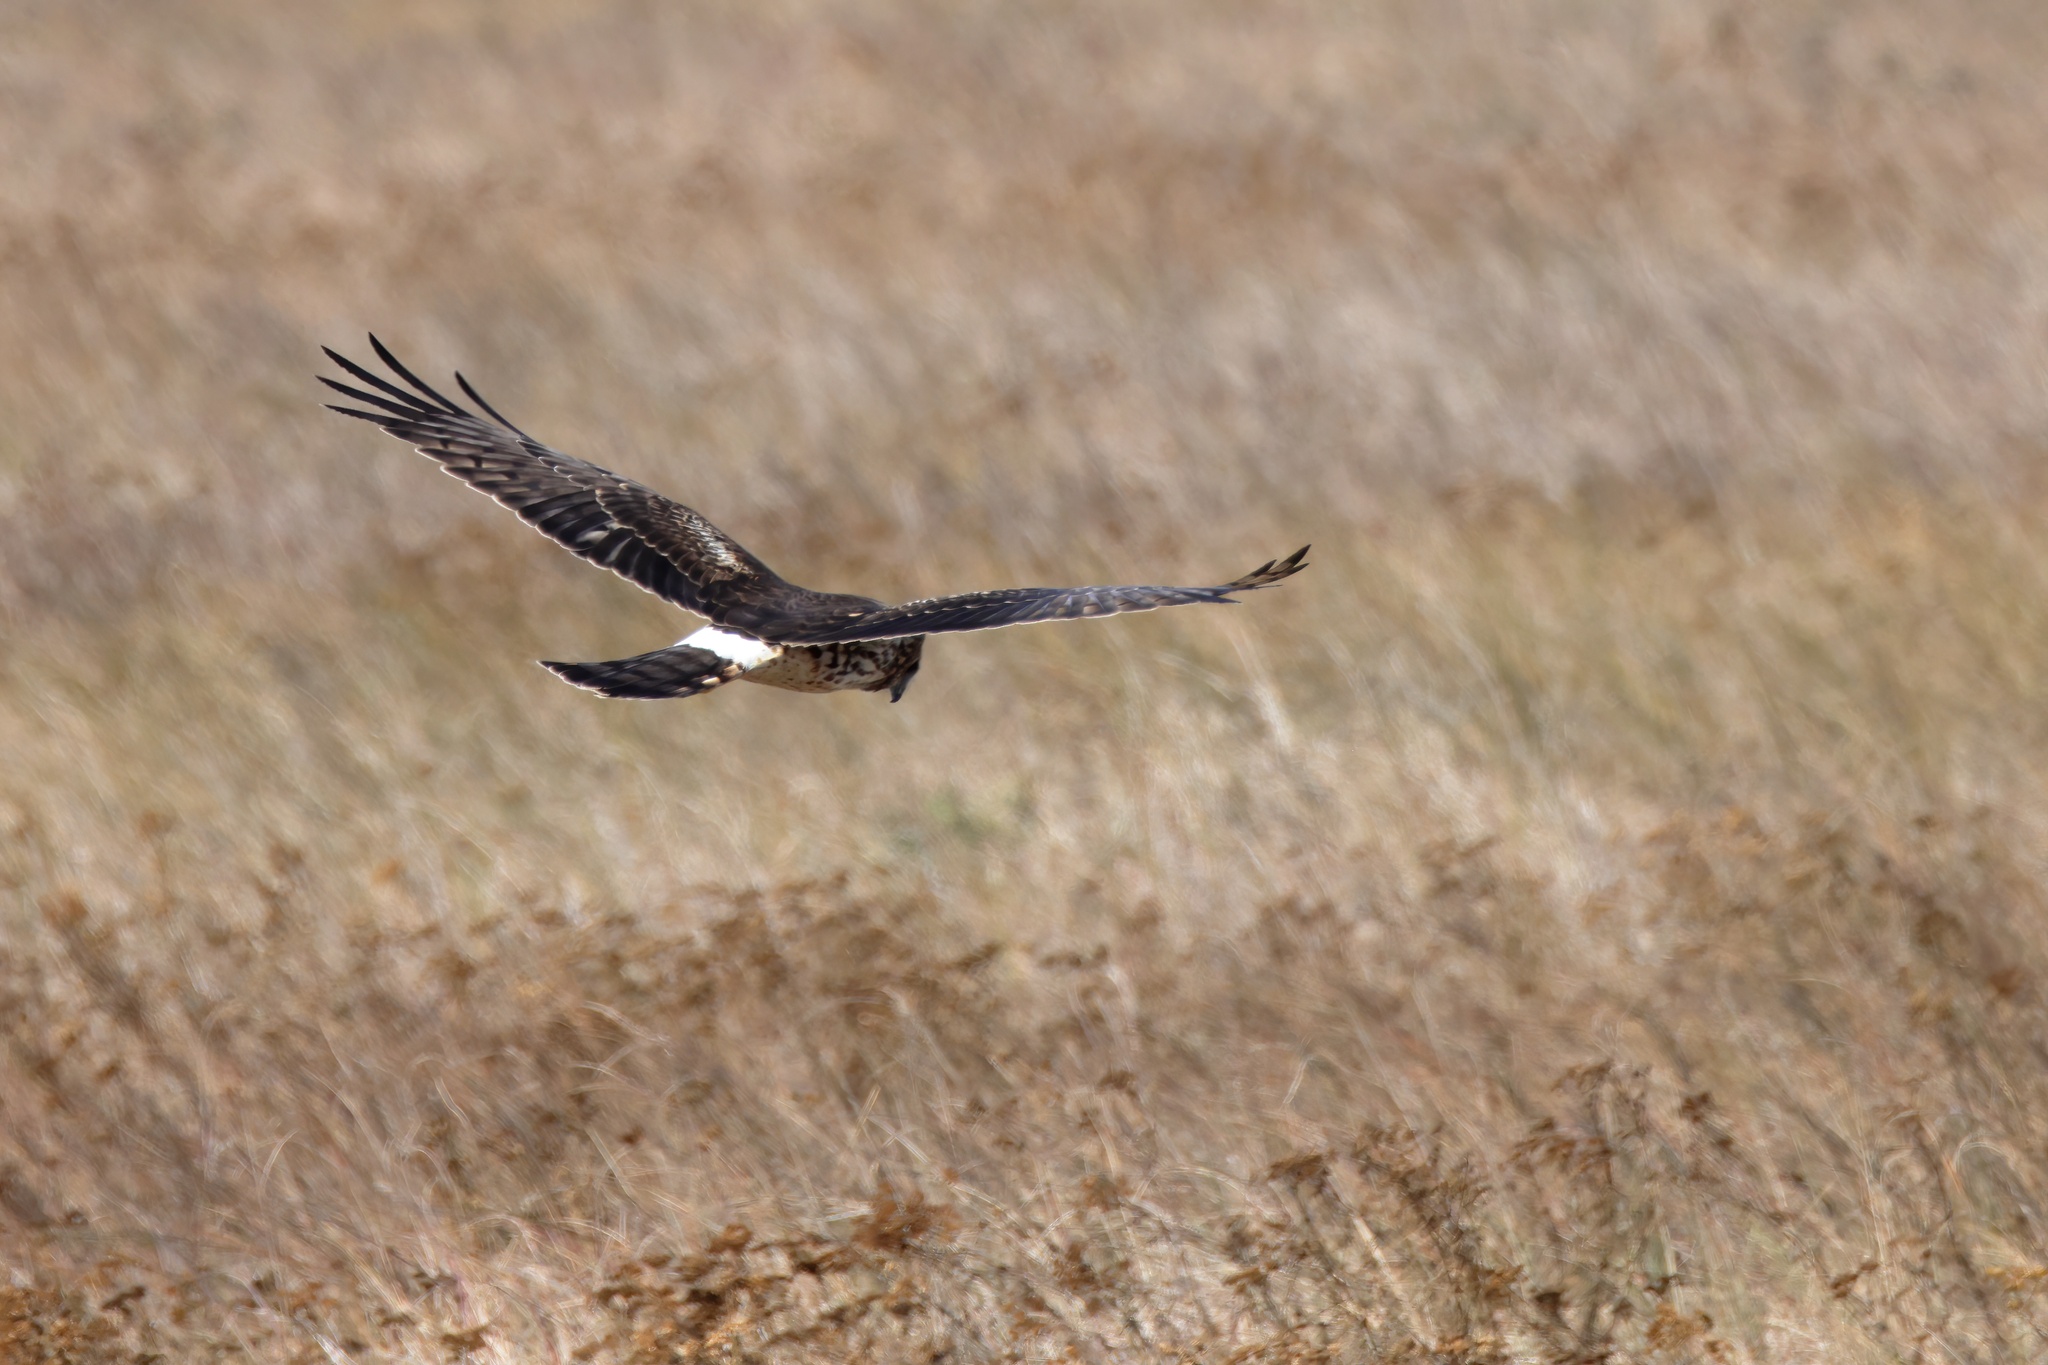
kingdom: Animalia
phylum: Chordata
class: Aves
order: Accipitriformes
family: Accipitridae
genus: Circus
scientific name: Circus cyaneus
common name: Hen harrier
